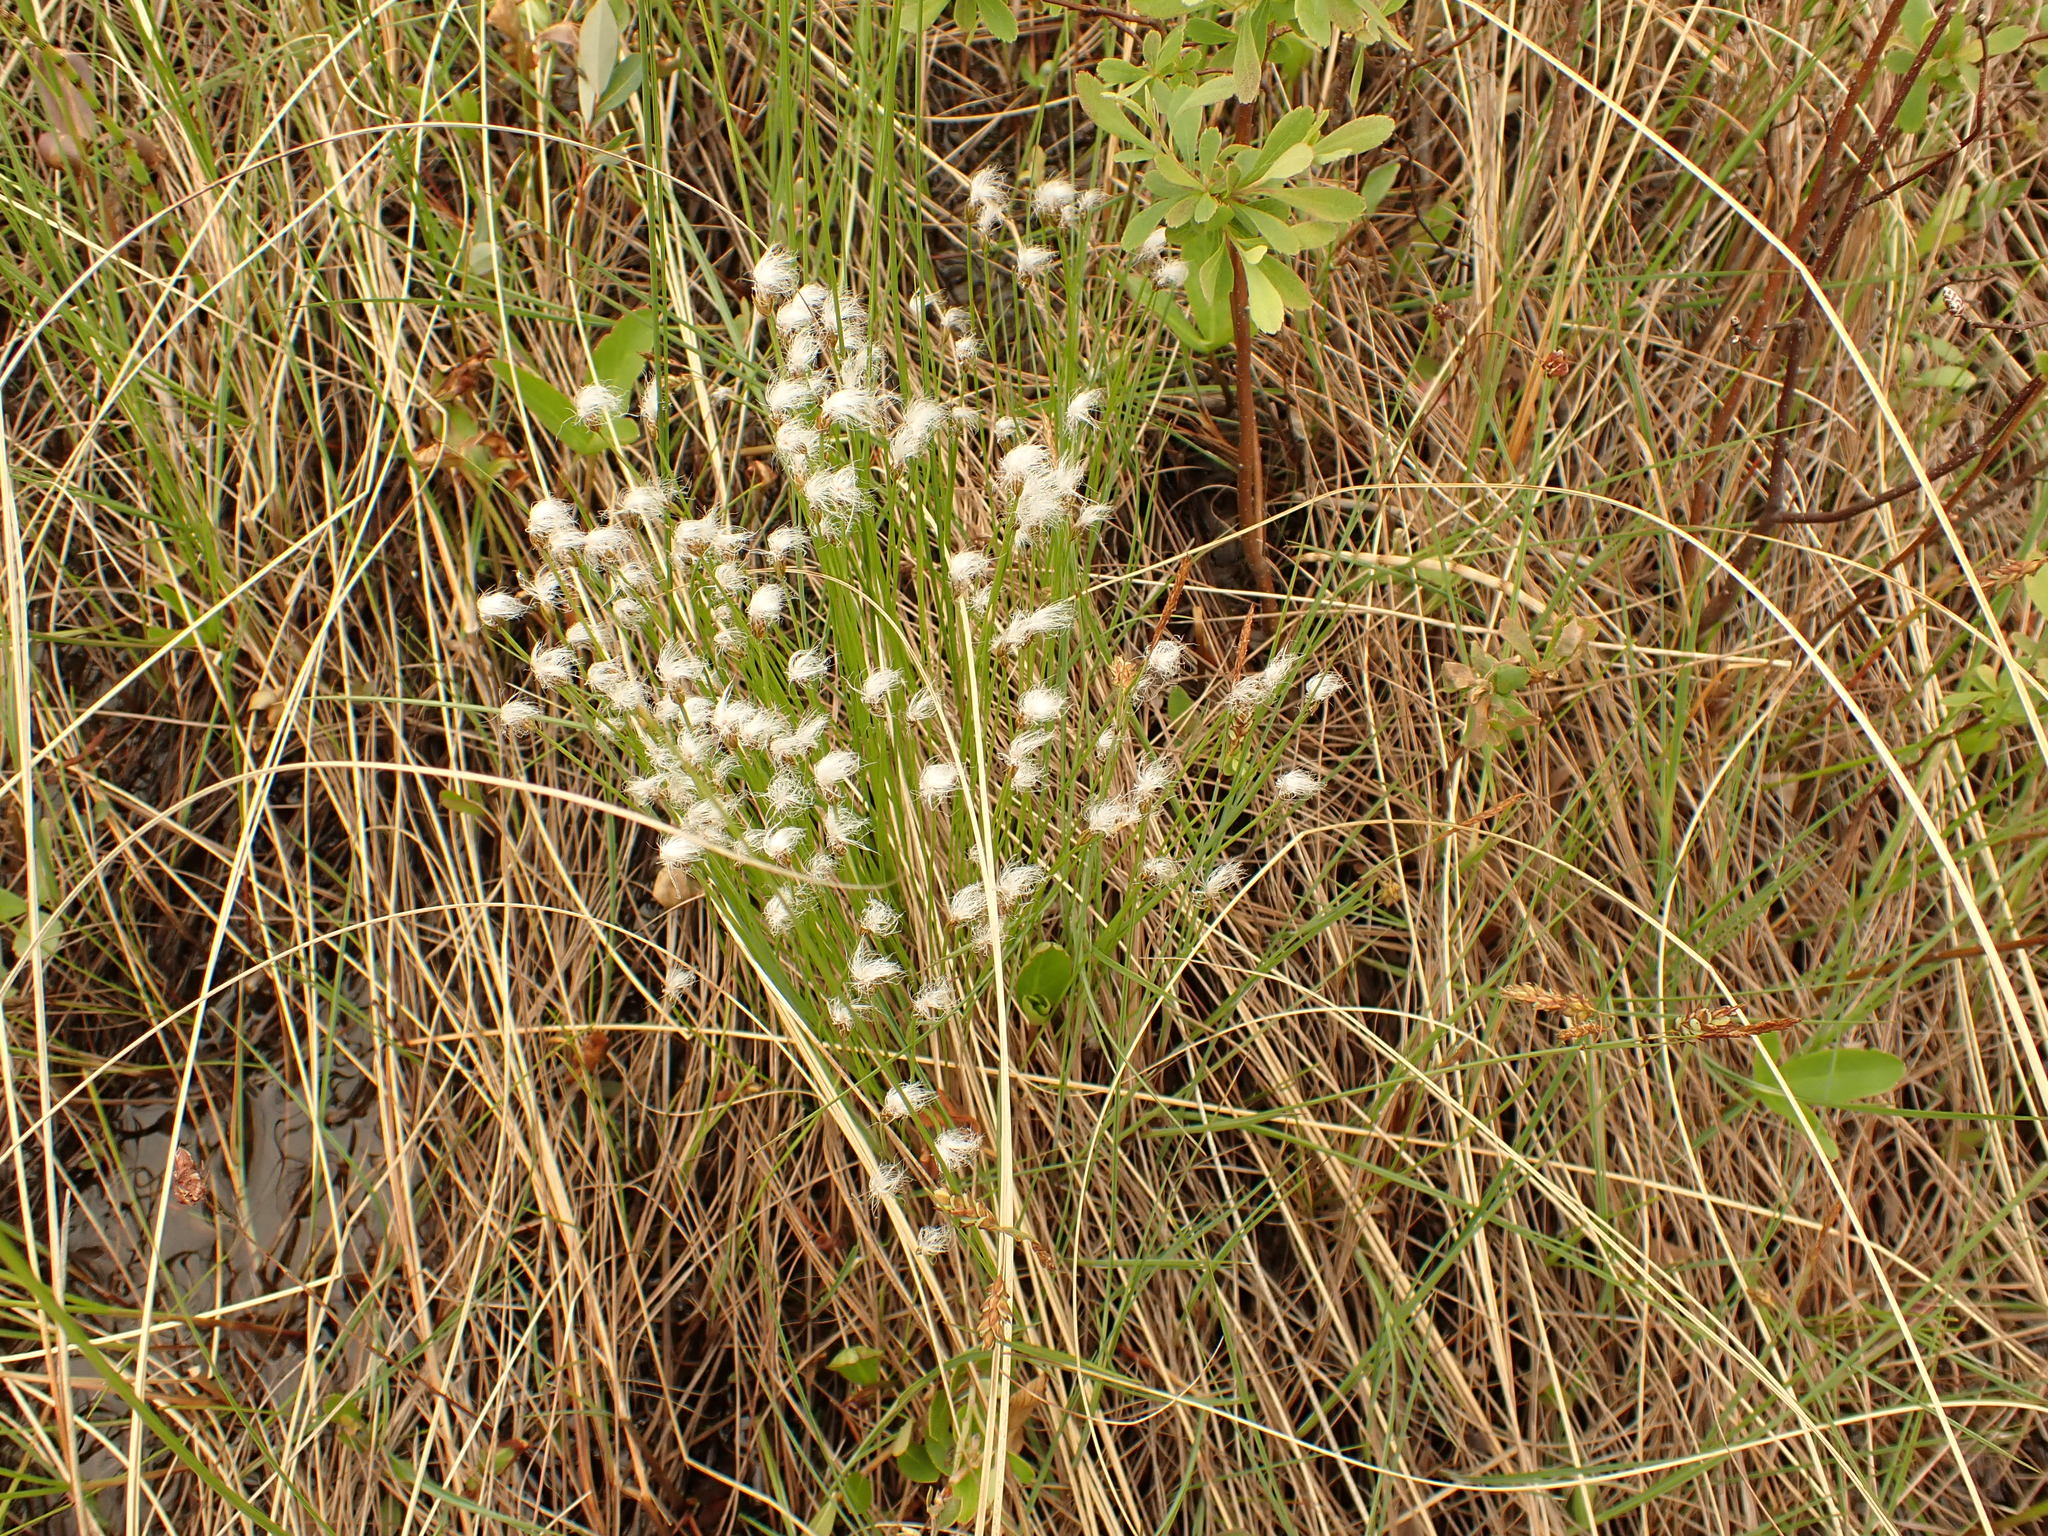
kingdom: Plantae
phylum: Tracheophyta
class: Liliopsida
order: Poales
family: Cyperaceae
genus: Trichophorum
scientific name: Trichophorum alpinum
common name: Alpine bulrush
